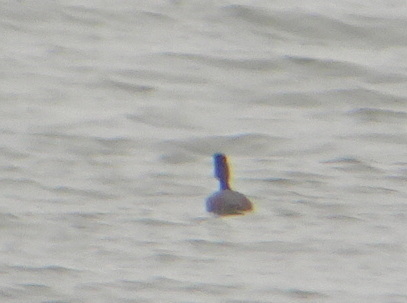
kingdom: Animalia
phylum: Chordata
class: Aves
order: Podicipediformes
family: Podicipedidae
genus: Podiceps
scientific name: Podiceps nigricollis
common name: Black-necked grebe
